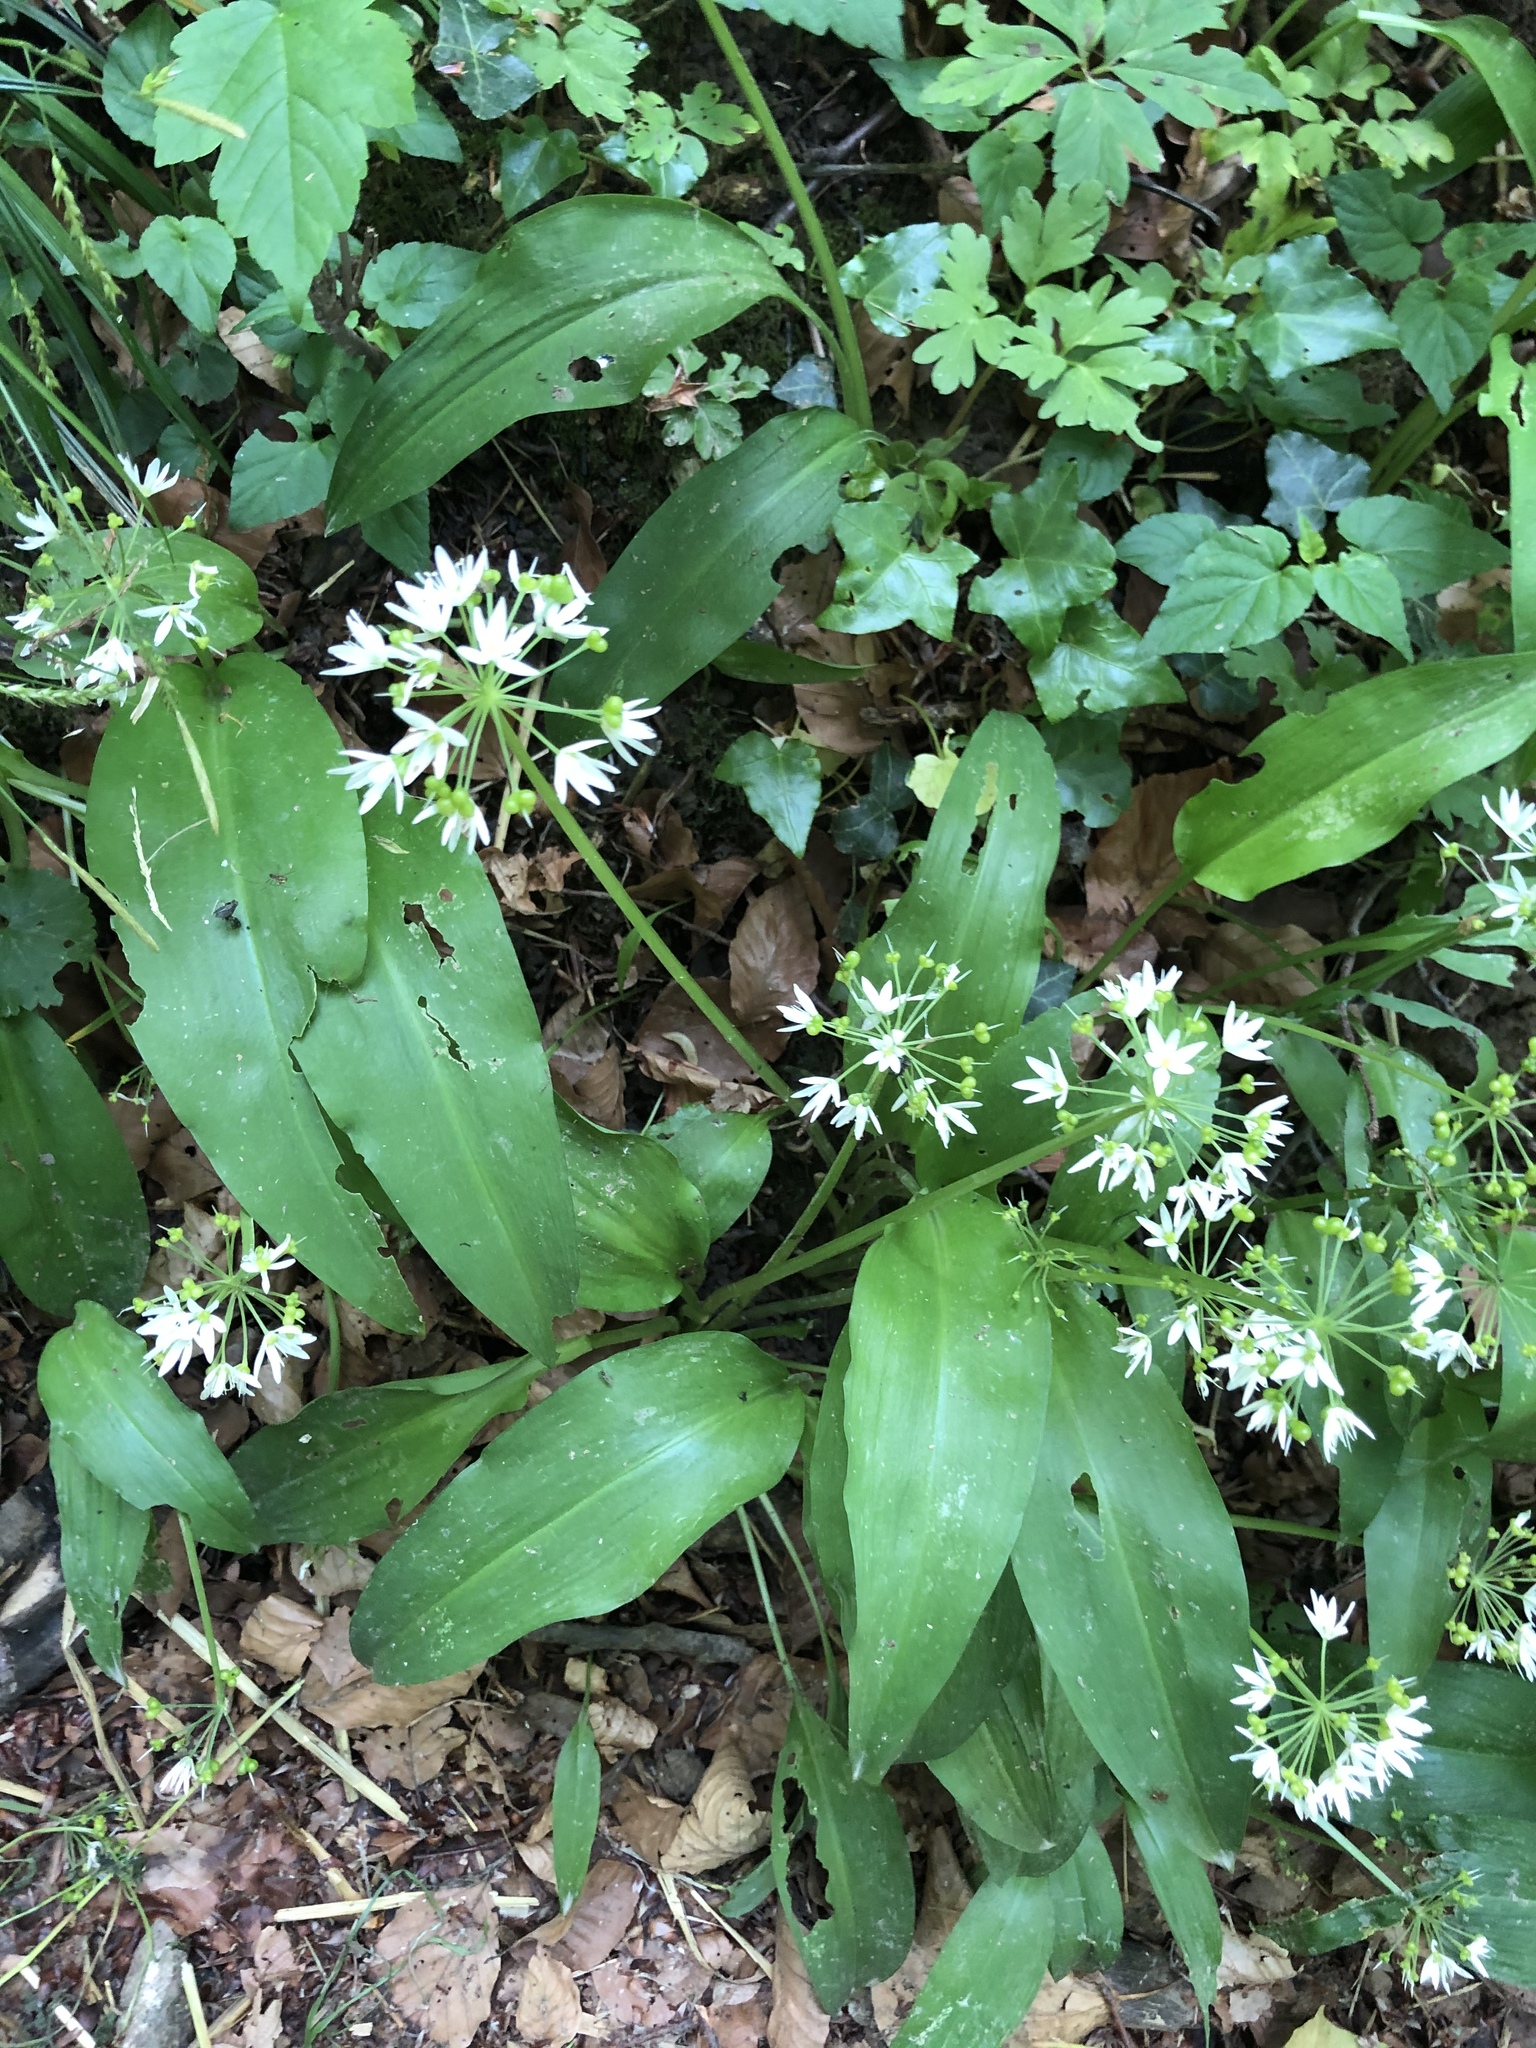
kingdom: Plantae
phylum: Tracheophyta
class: Liliopsida
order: Asparagales
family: Amaryllidaceae
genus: Allium
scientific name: Allium ursinum
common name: Ramsons
